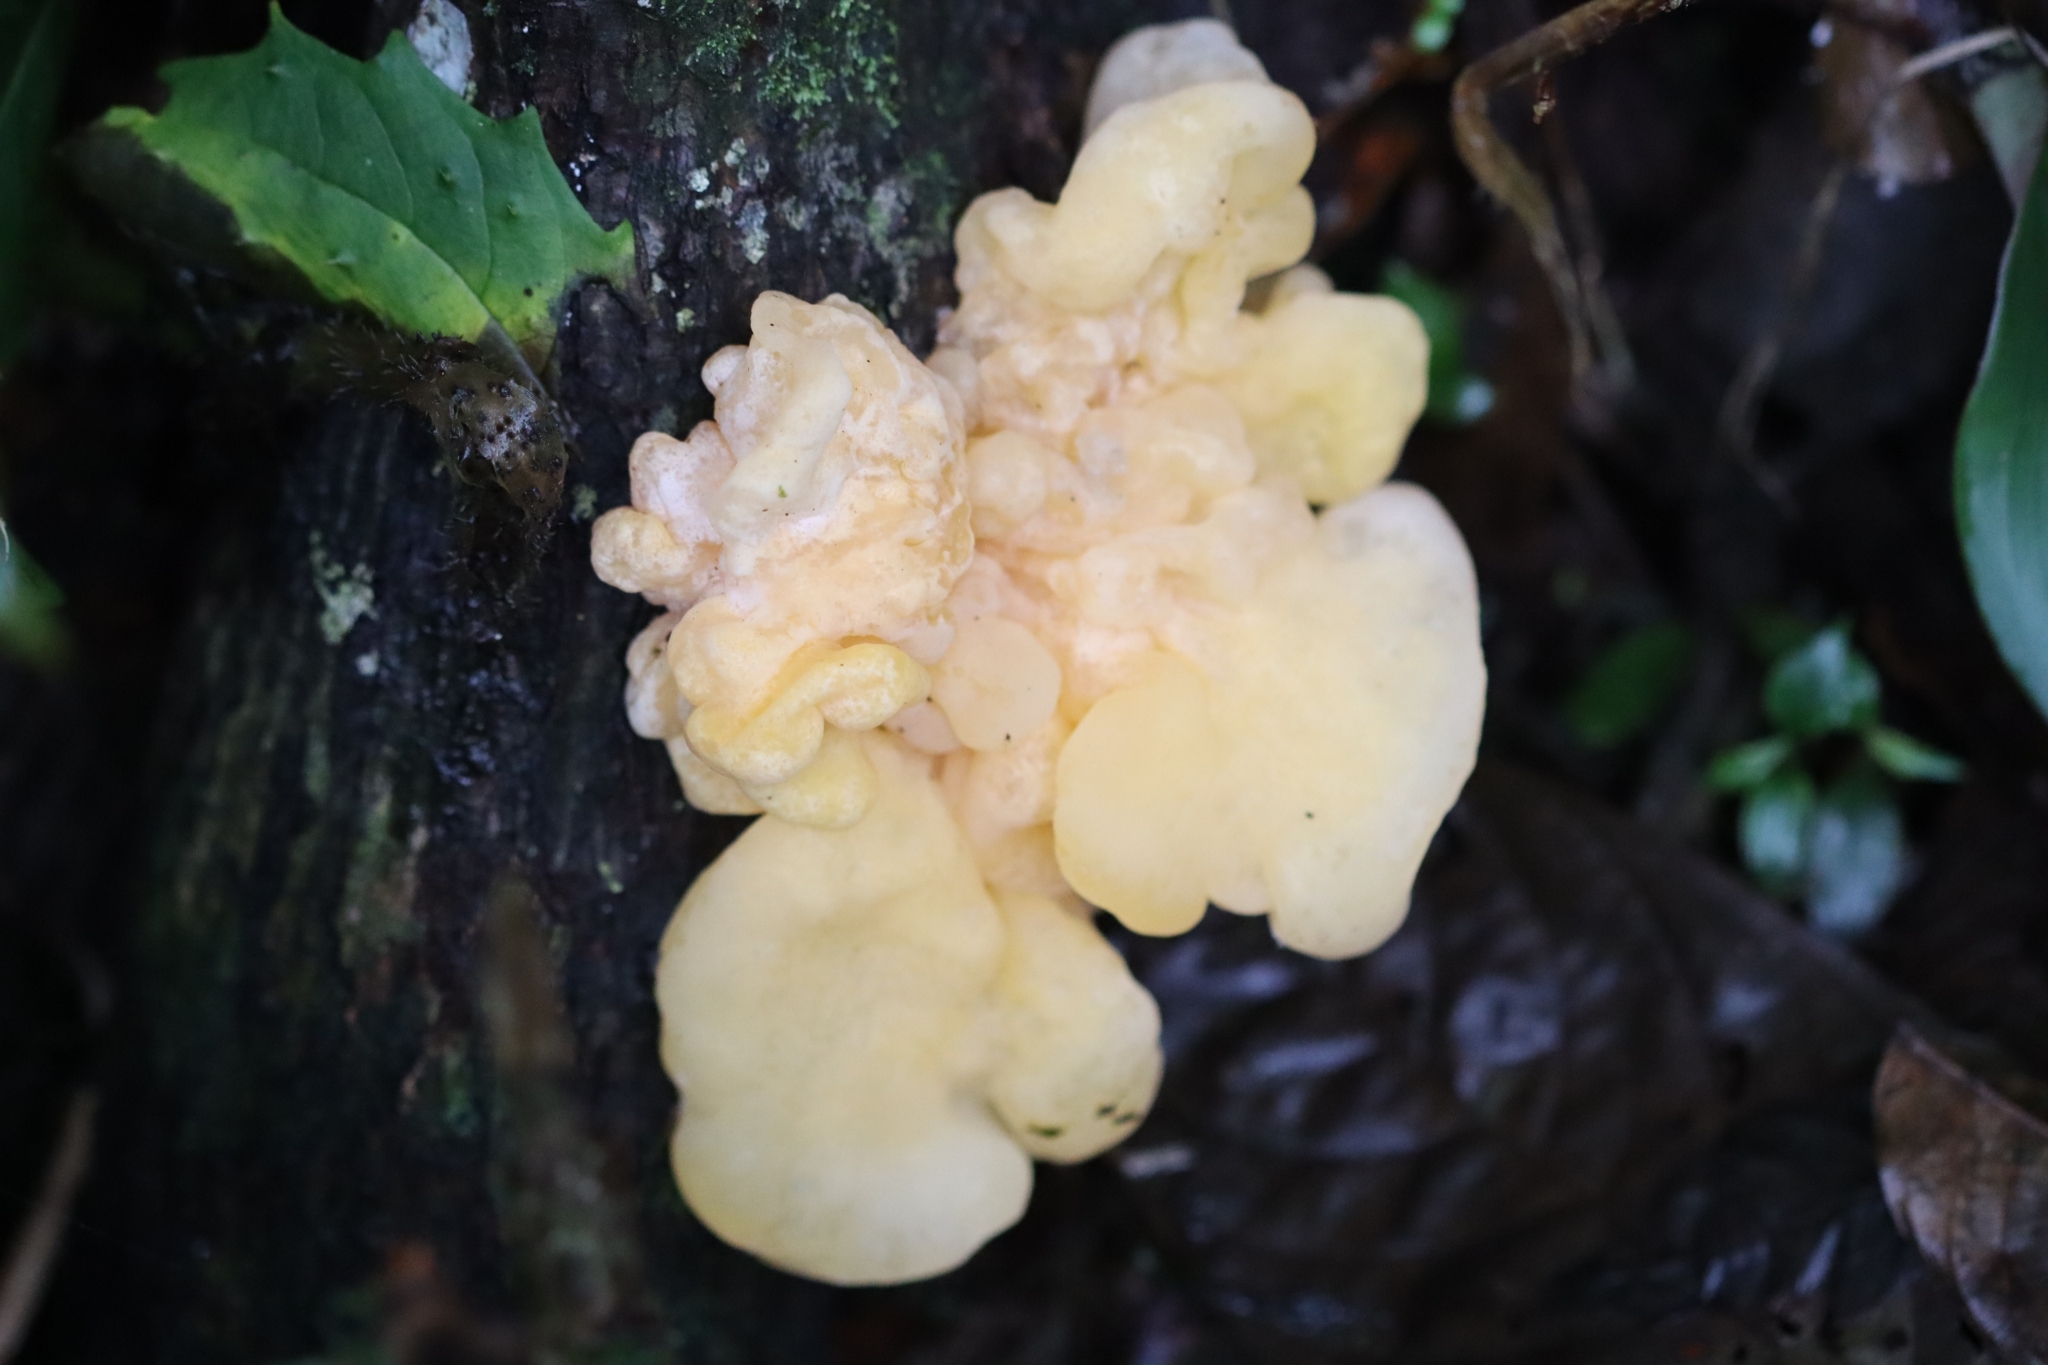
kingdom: Fungi
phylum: Basidiomycota
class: Tremellomycetes
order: Tremellales
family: Tremellaceae
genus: Tremella
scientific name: Tremella mesenterica
